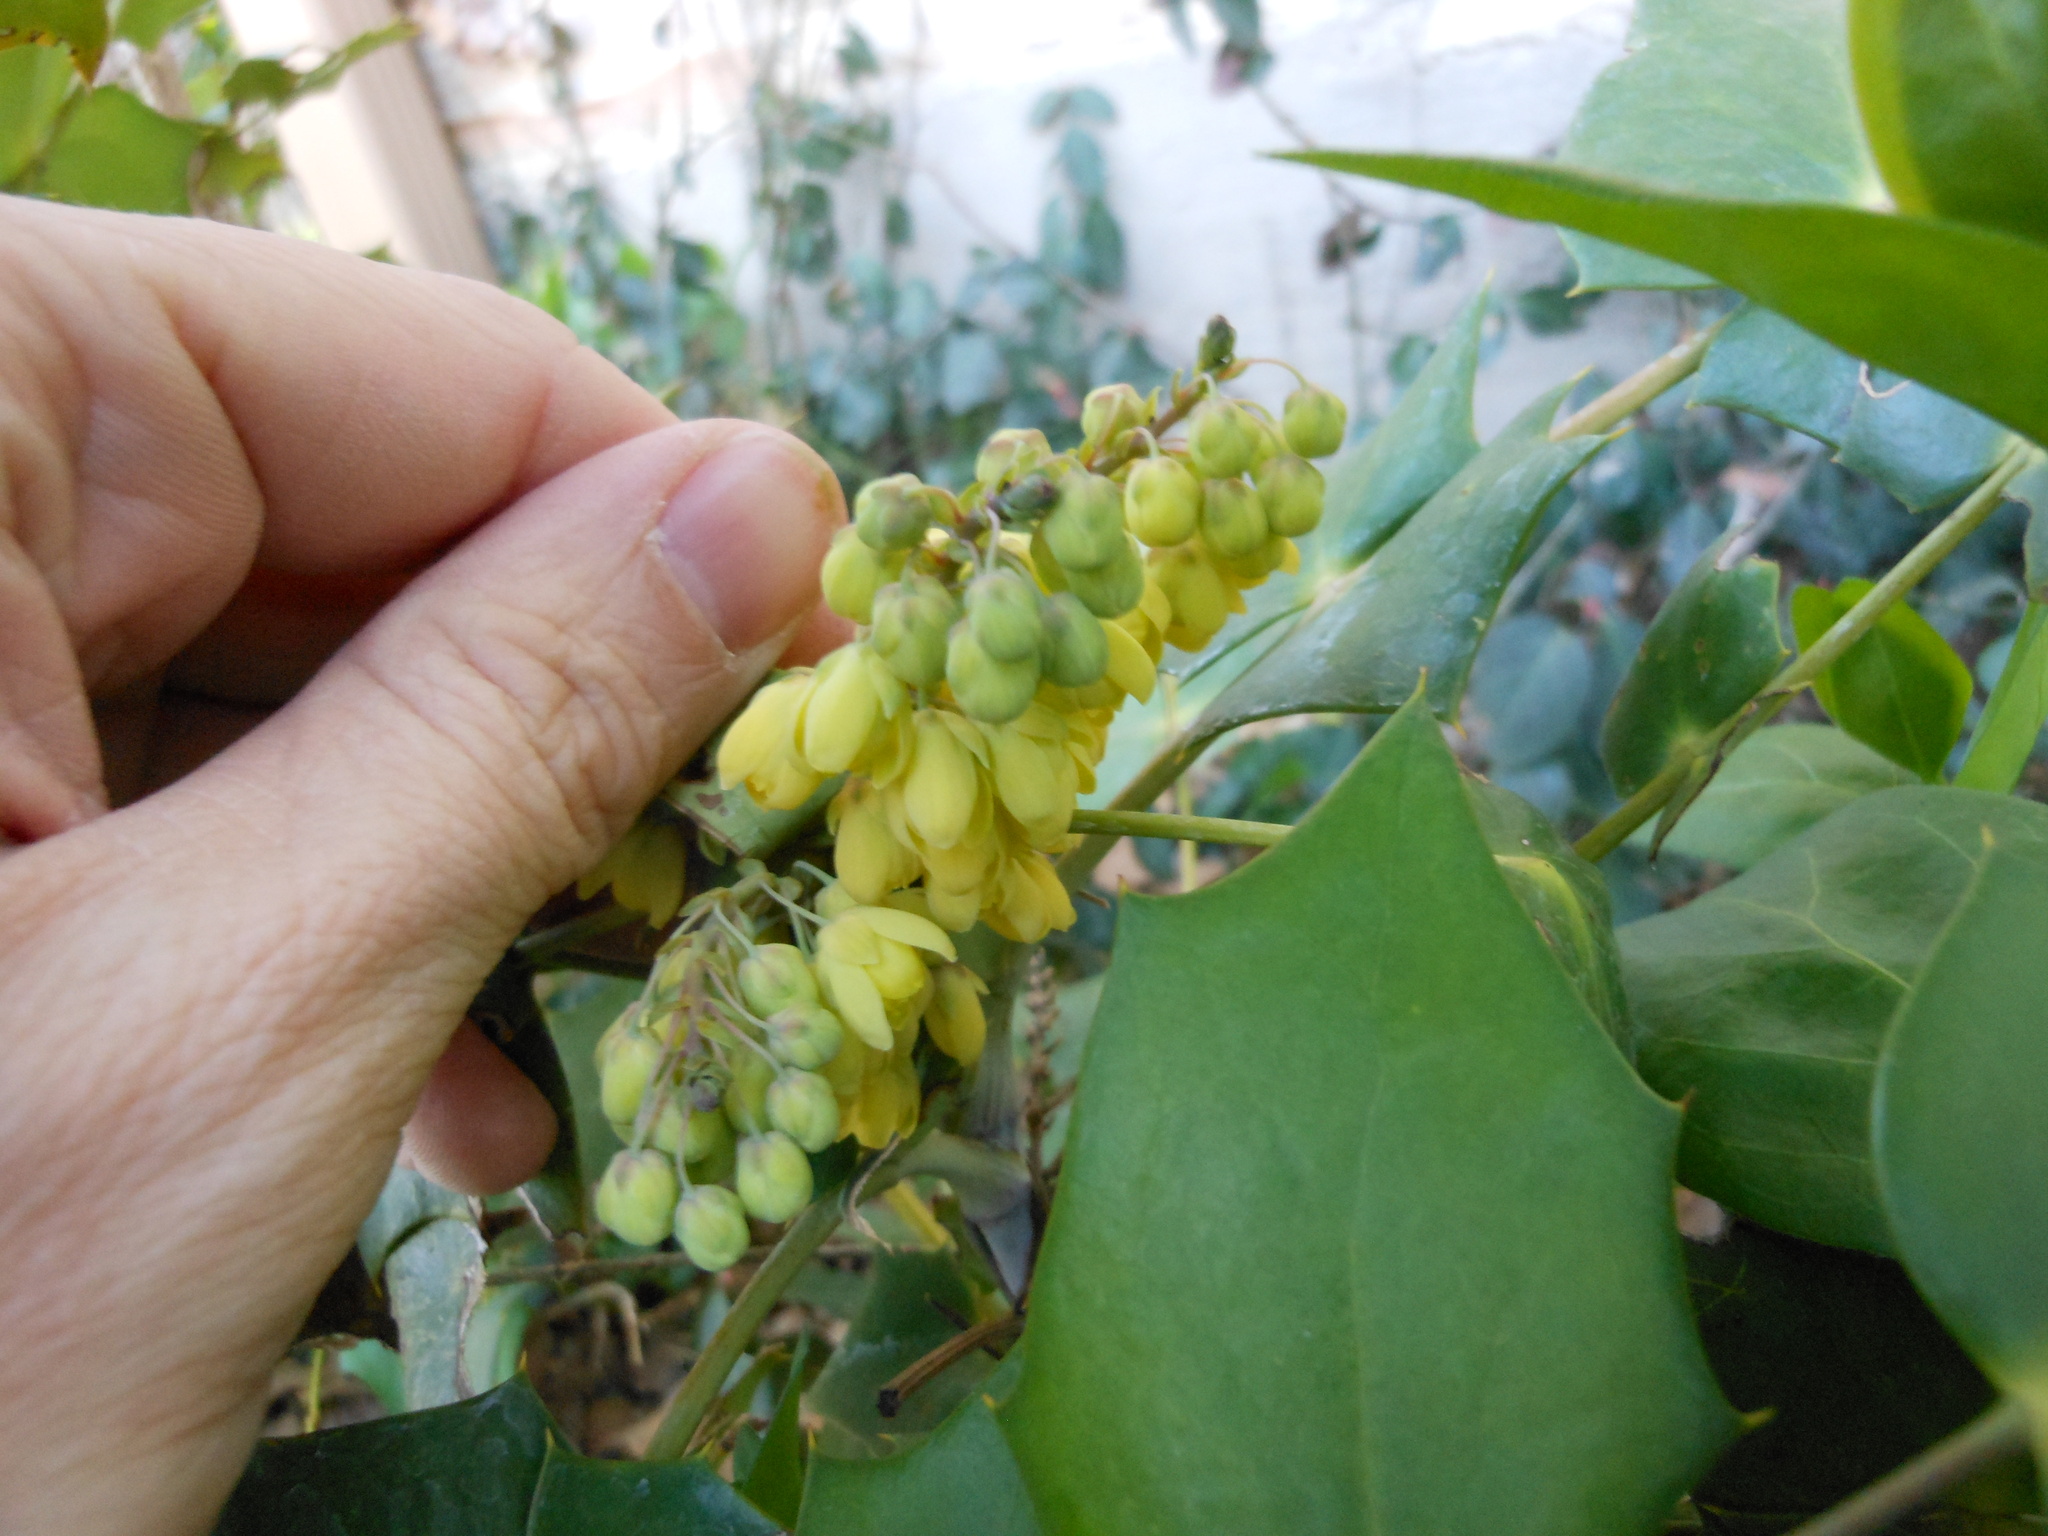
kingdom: Plantae
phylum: Tracheophyta
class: Magnoliopsida
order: Ranunculales
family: Berberidaceae
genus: Mahonia
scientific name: Mahonia bealei
